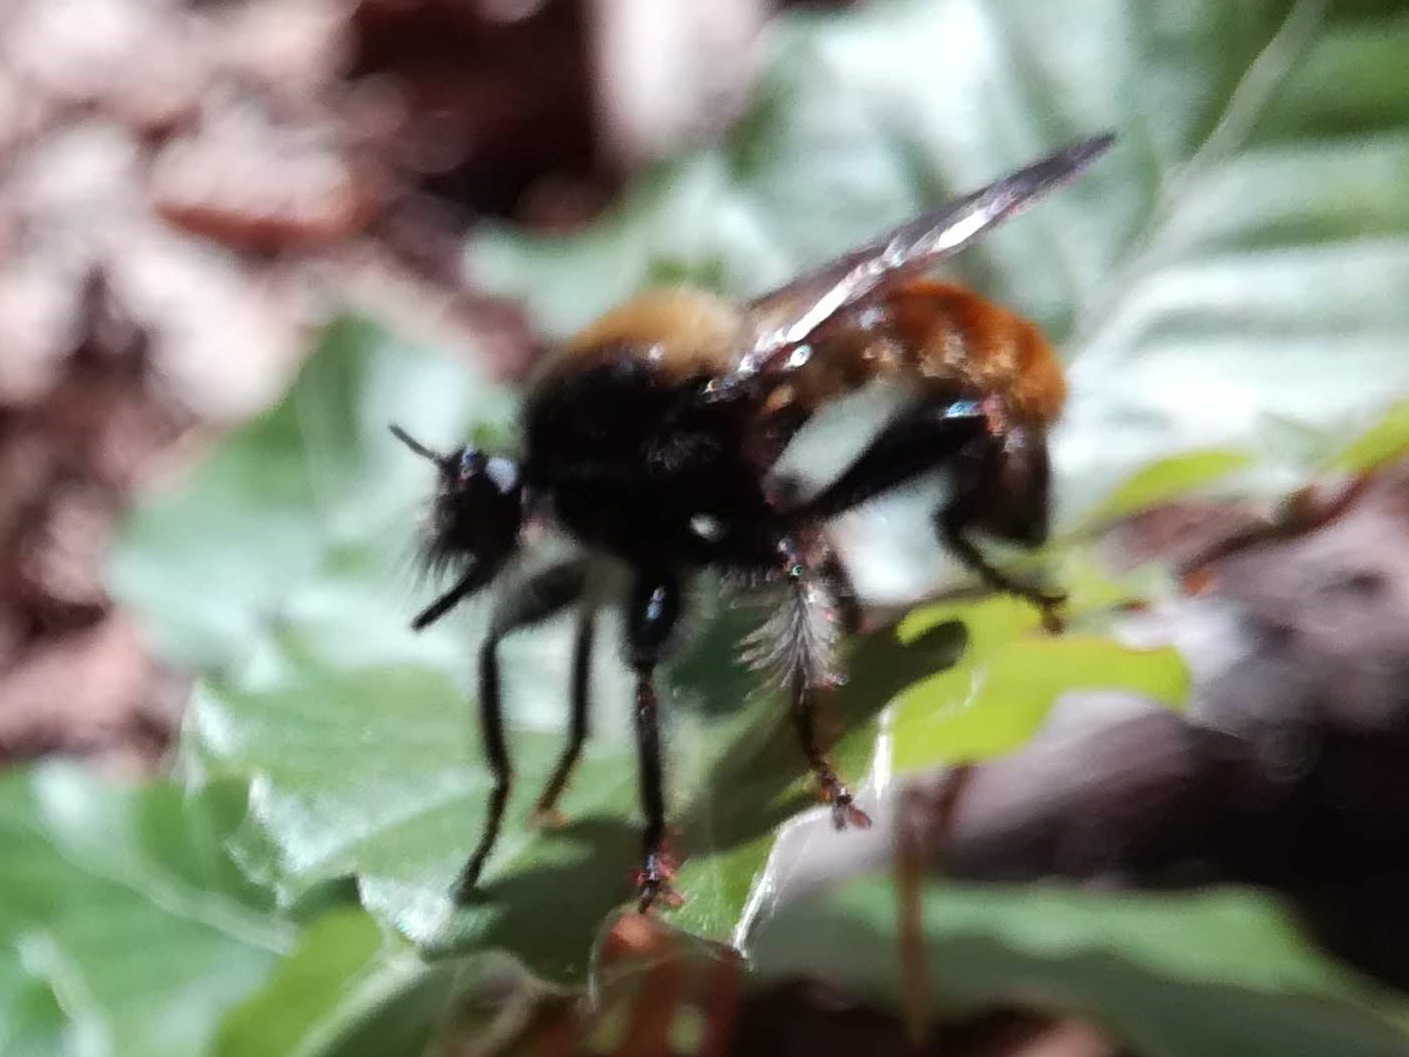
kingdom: Animalia
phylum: Arthropoda
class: Insecta
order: Diptera
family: Asilidae
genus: Laphria
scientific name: Laphria flava
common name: Bumblebee robberfly
